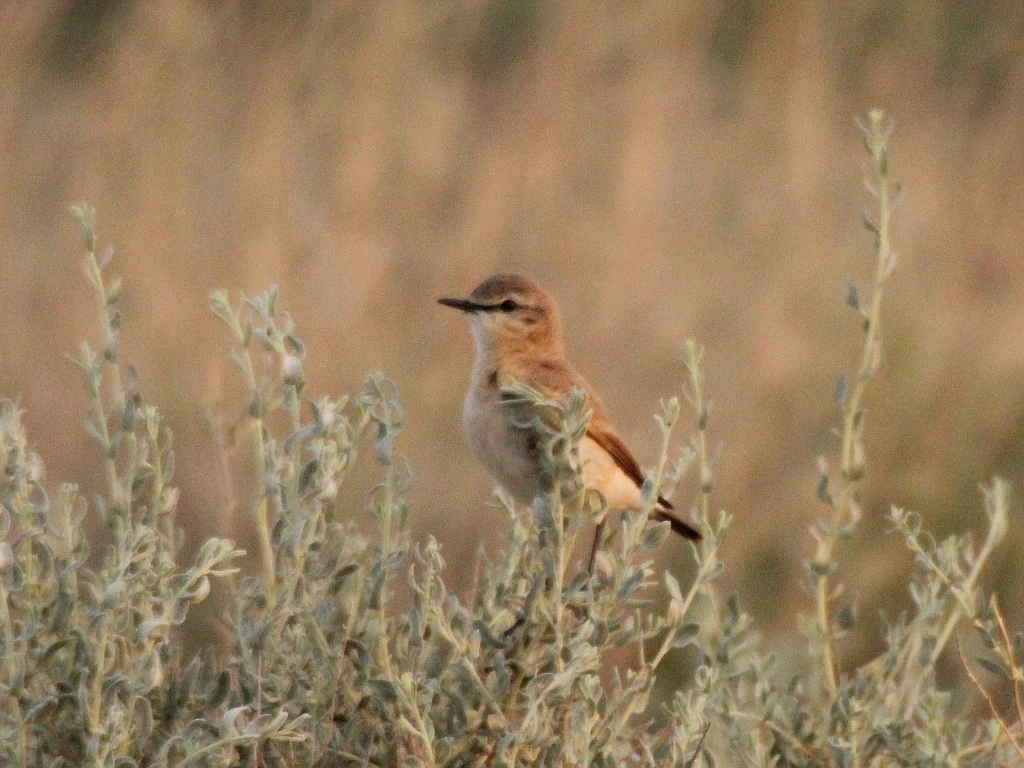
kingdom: Animalia
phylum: Chordata
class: Aves
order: Passeriformes
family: Muscicapidae
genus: Oenanthe
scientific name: Oenanthe isabellina
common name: Isabelline wheatear
